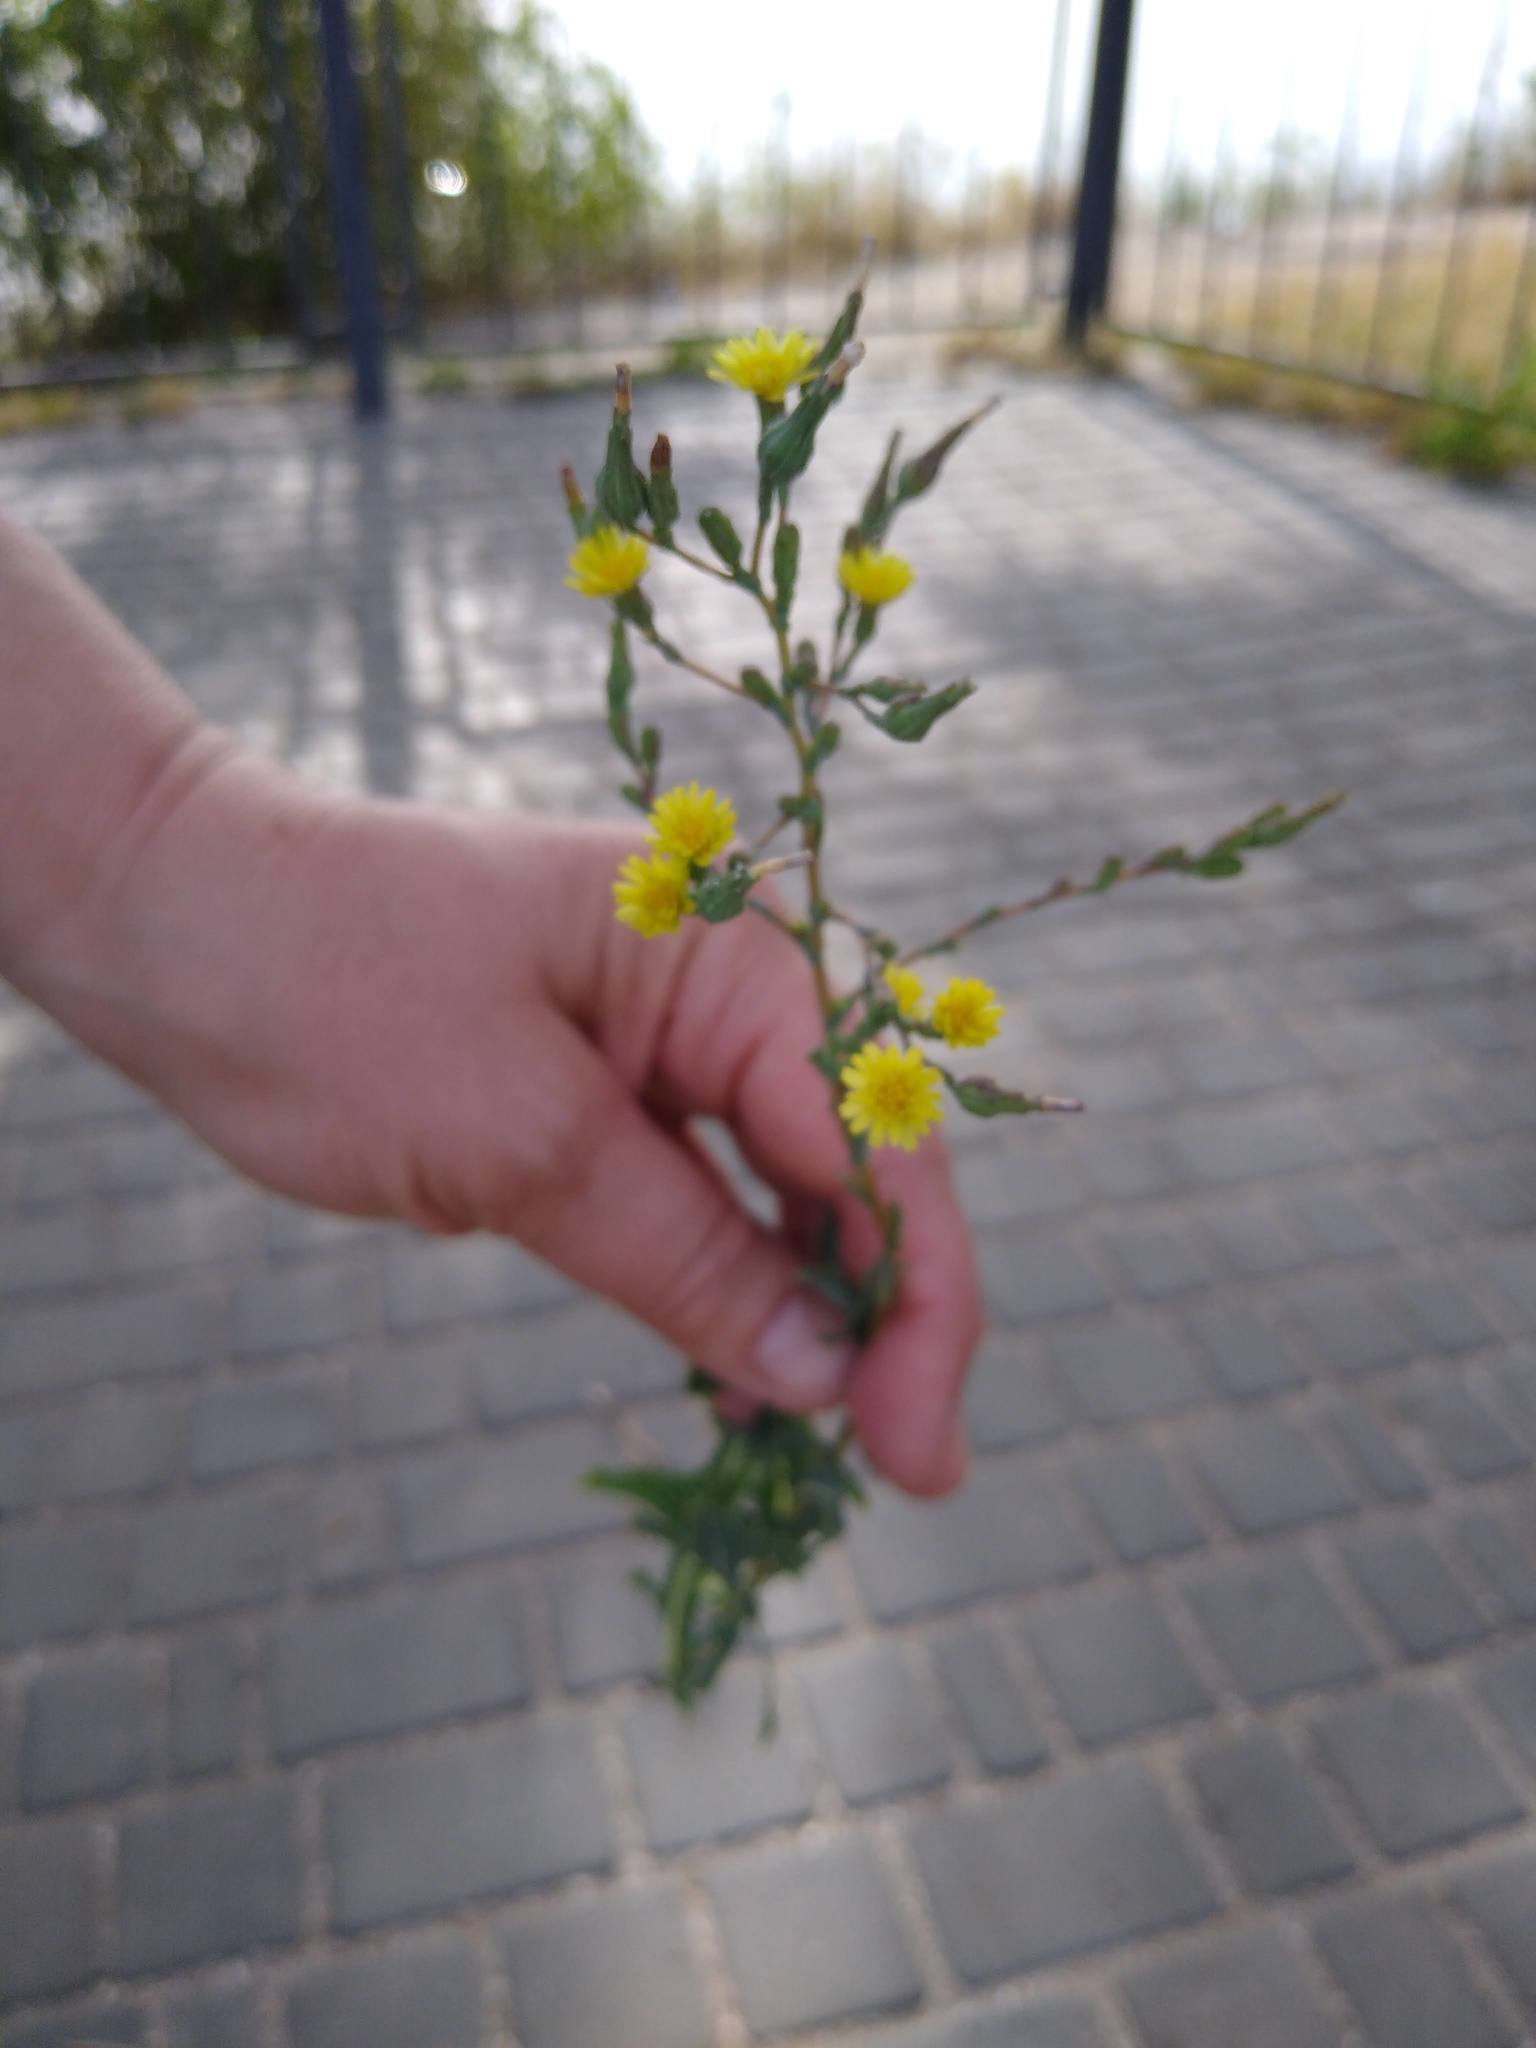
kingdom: Plantae
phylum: Tracheophyta
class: Magnoliopsida
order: Asterales
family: Asteraceae
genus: Lactuca
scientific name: Lactuca serriola
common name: Prickly lettuce
